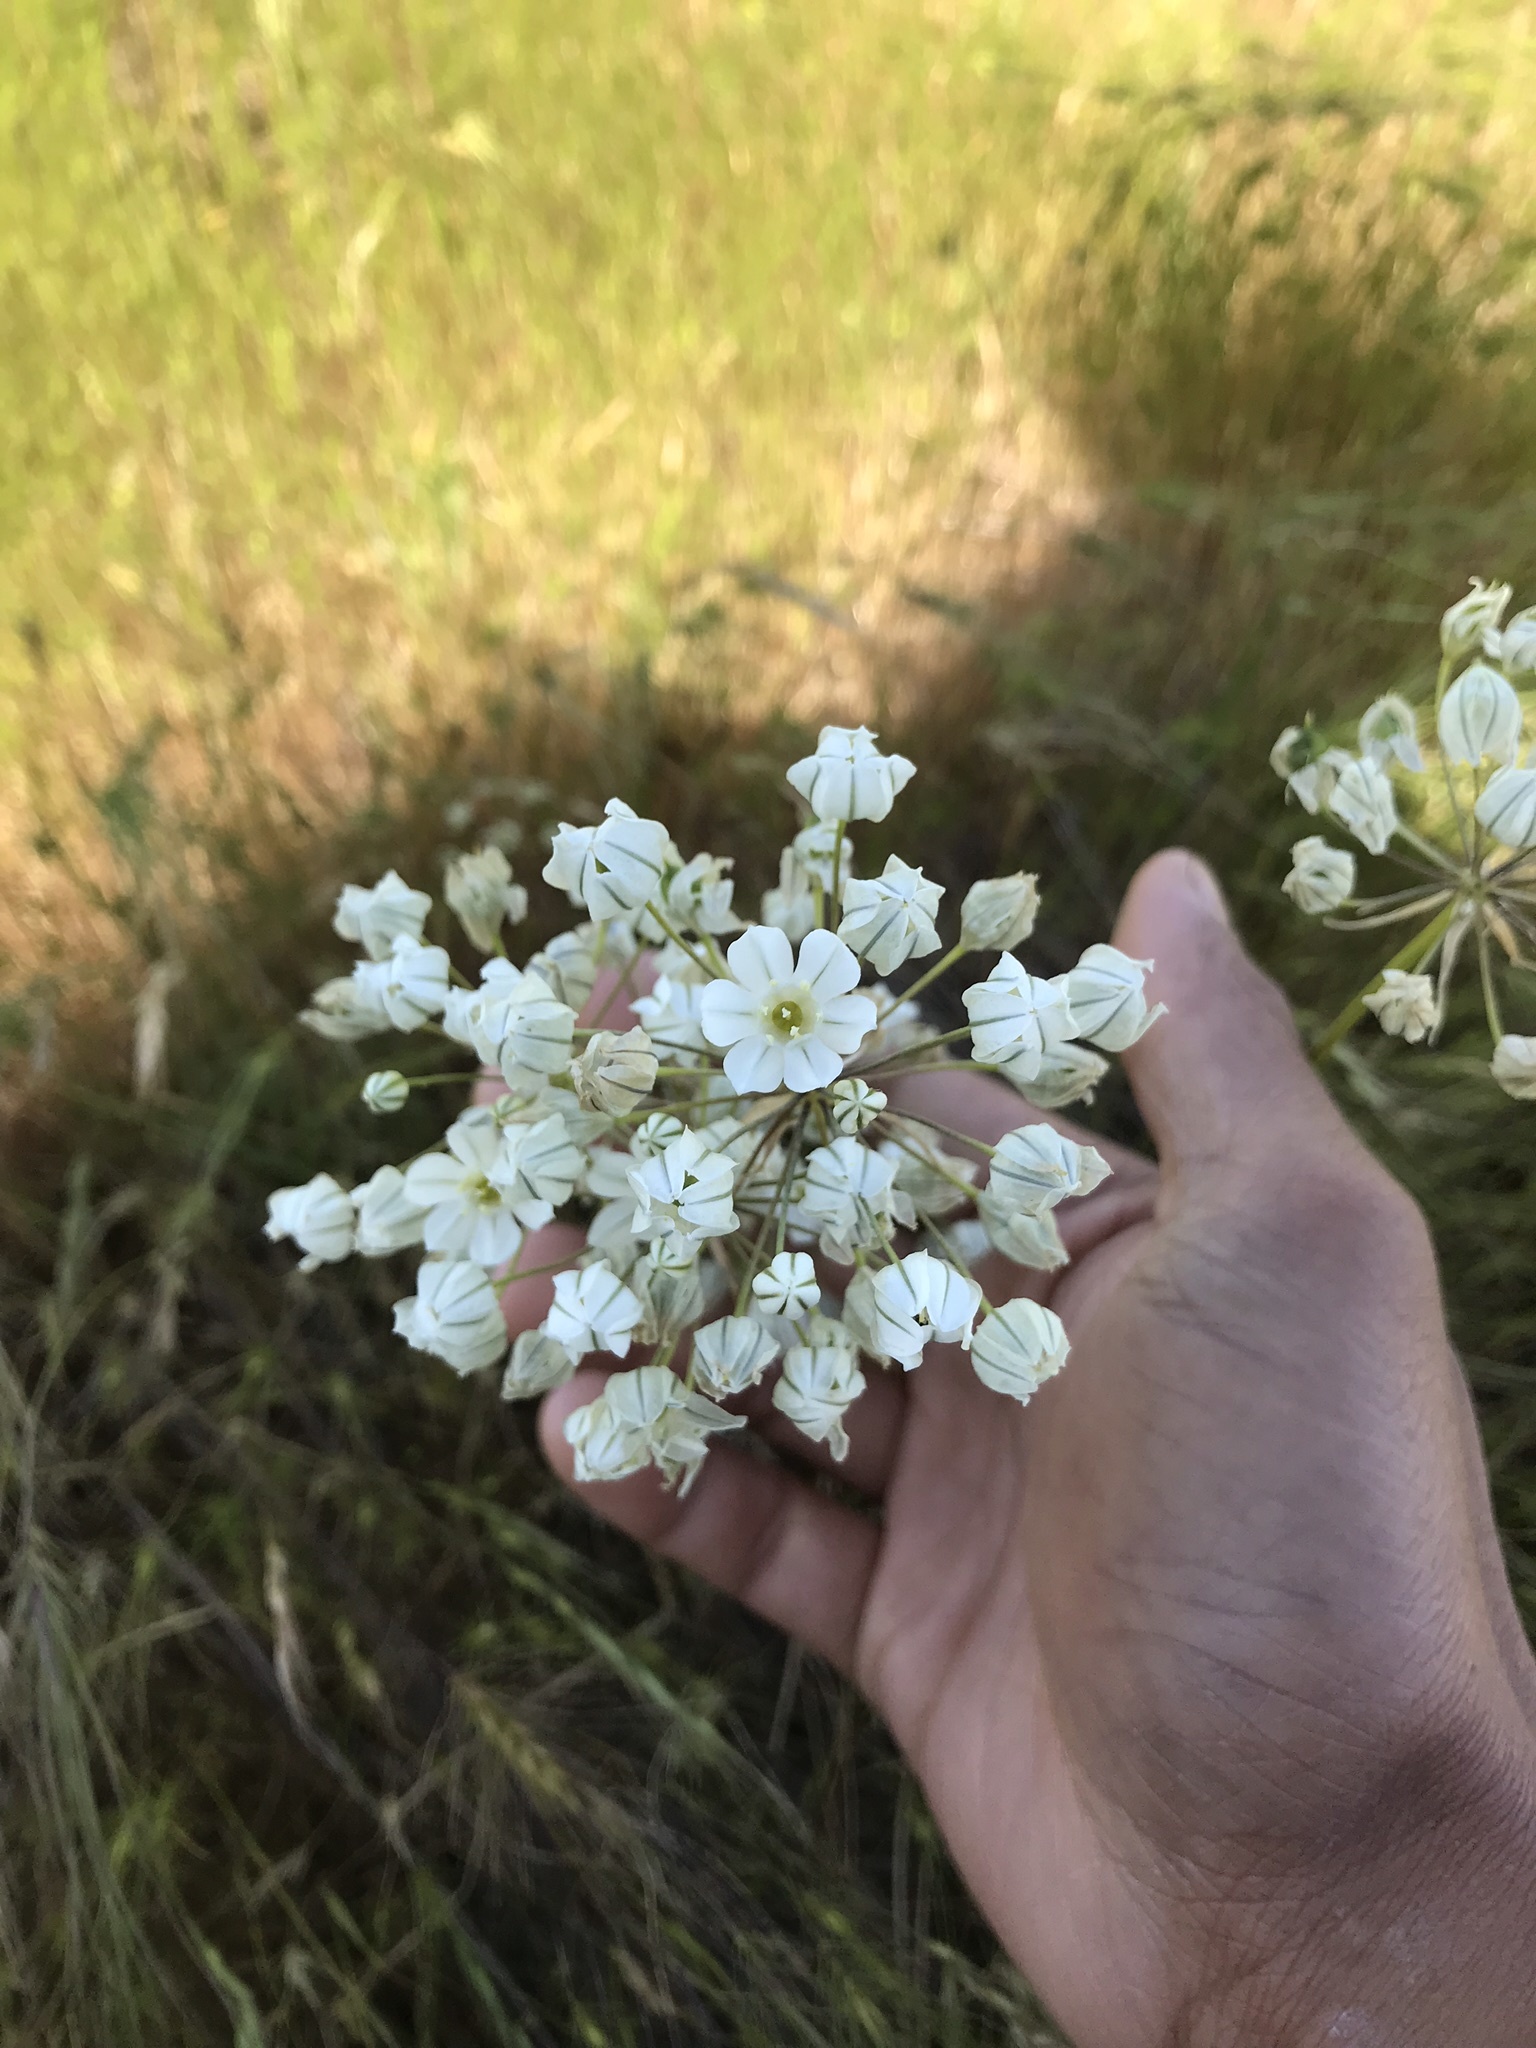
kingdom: Plantae
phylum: Tracheophyta
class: Liliopsida
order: Asparagales
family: Asparagaceae
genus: Triteleia
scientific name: Triteleia hyacinthina
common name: White brodiaea
